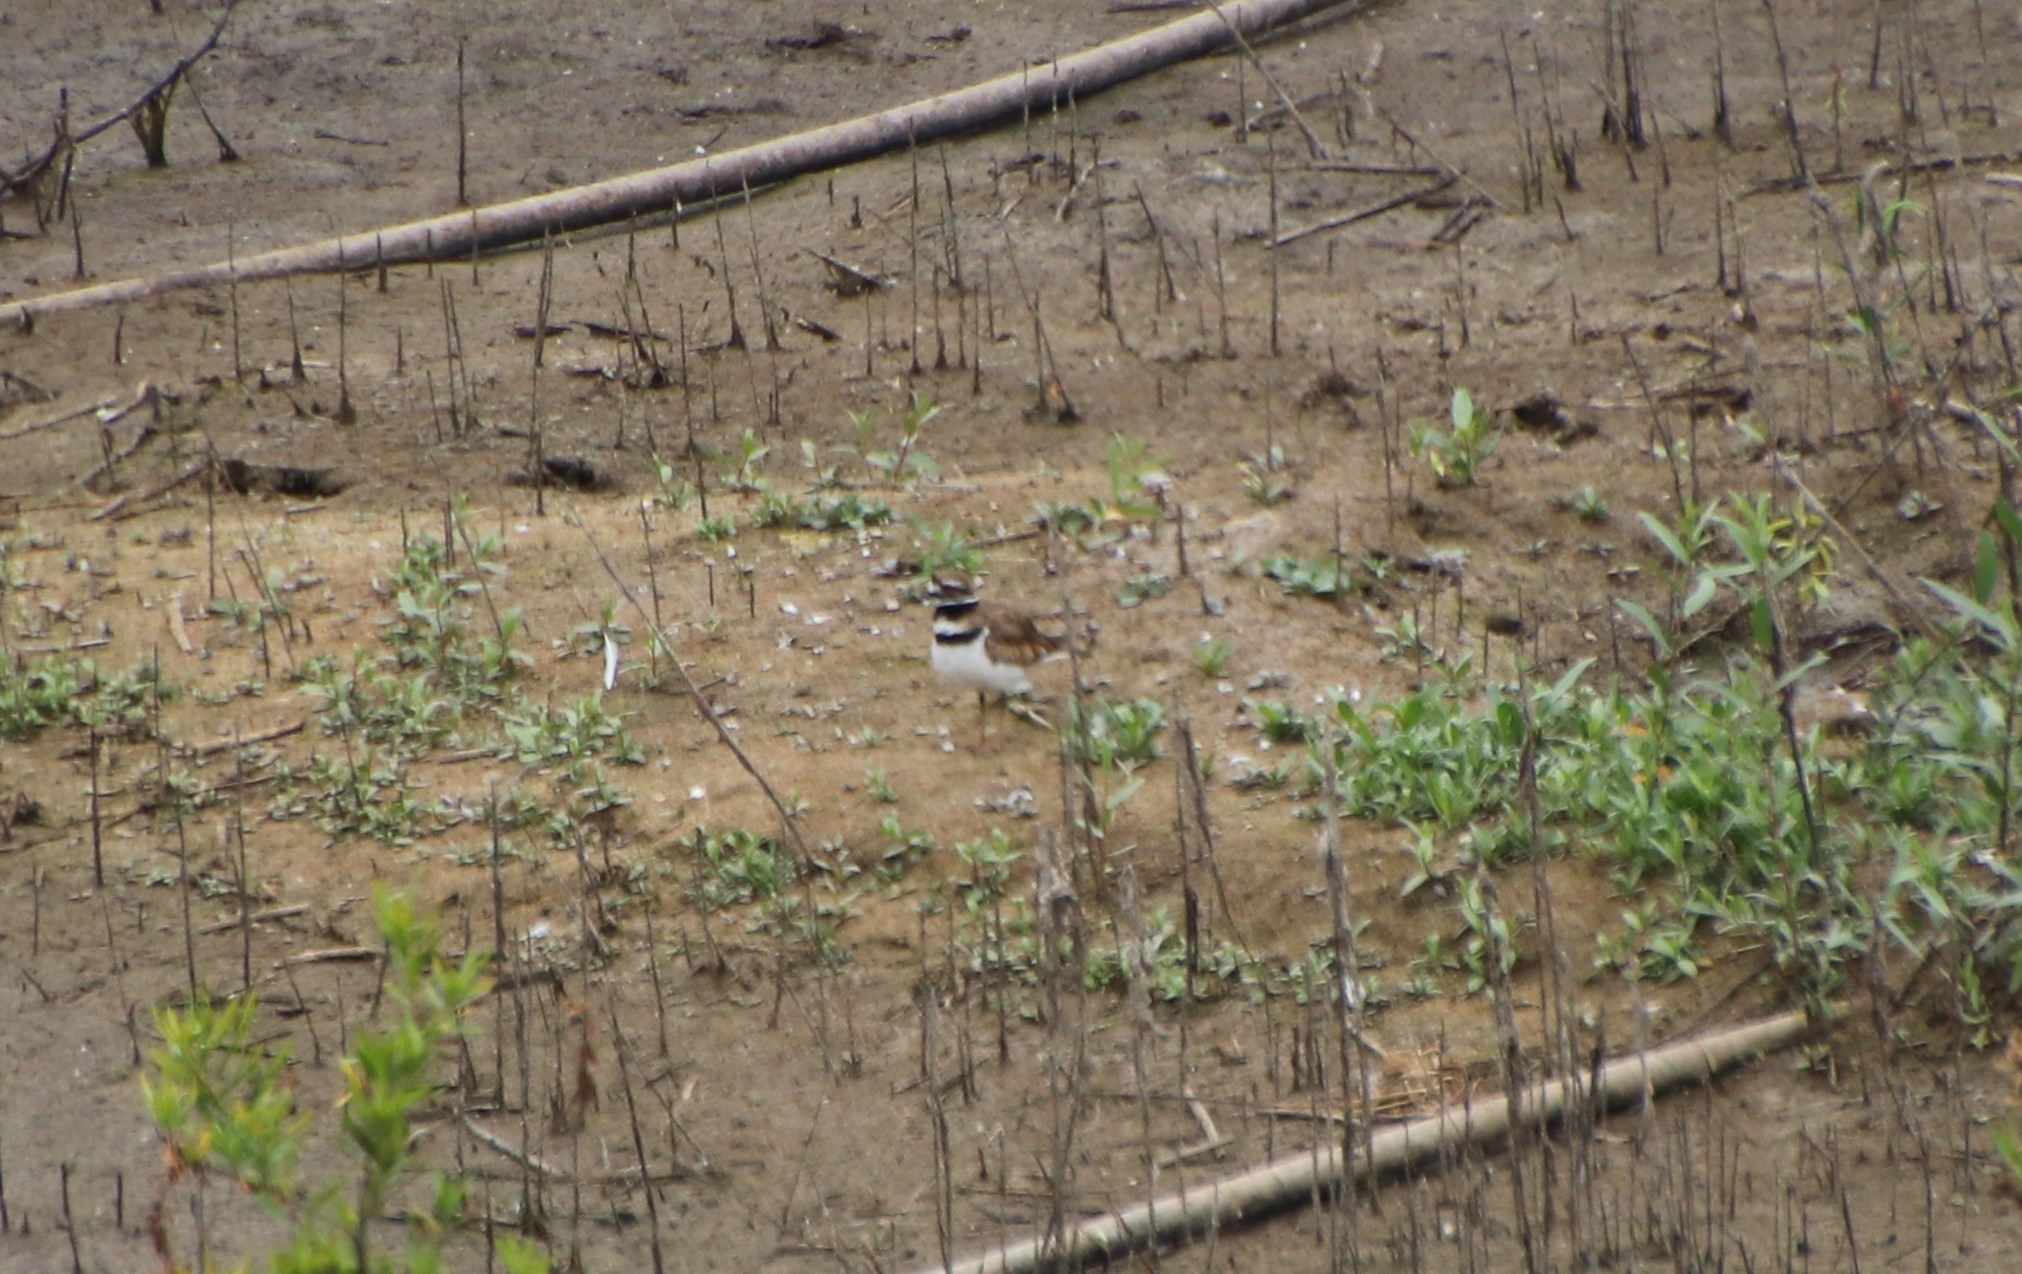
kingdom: Animalia
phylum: Chordata
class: Aves
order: Charadriiformes
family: Charadriidae
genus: Charadrius
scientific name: Charadrius vociferus
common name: Killdeer
